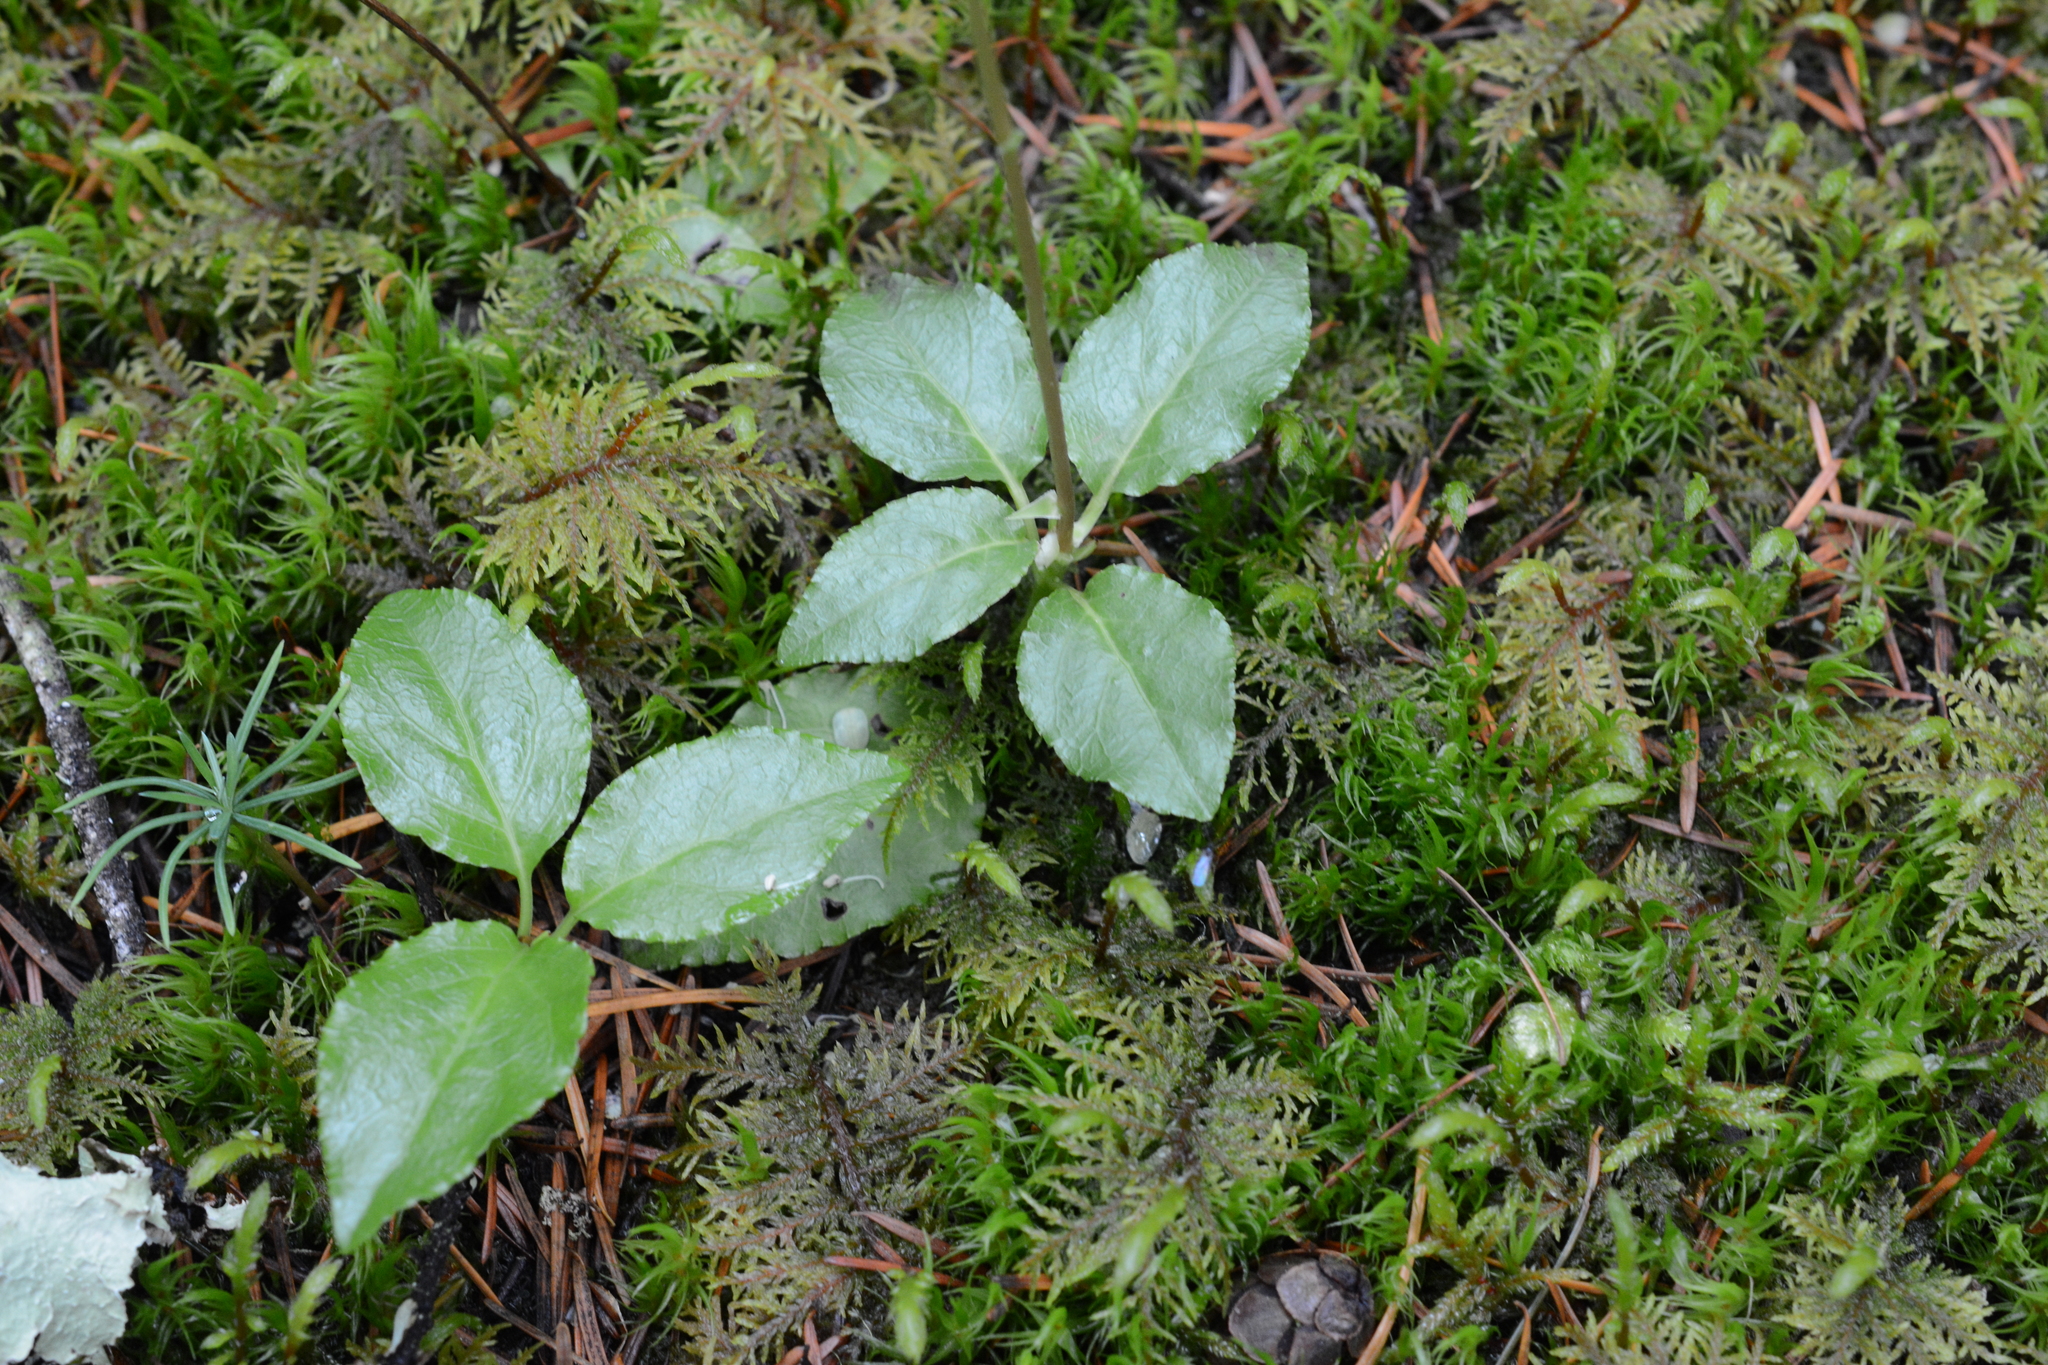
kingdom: Plantae
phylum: Tracheophyta
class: Magnoliopsida
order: Ericales
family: Ericaceae
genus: Orthilia
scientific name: Orthilia secunda
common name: One-sided orthilia
